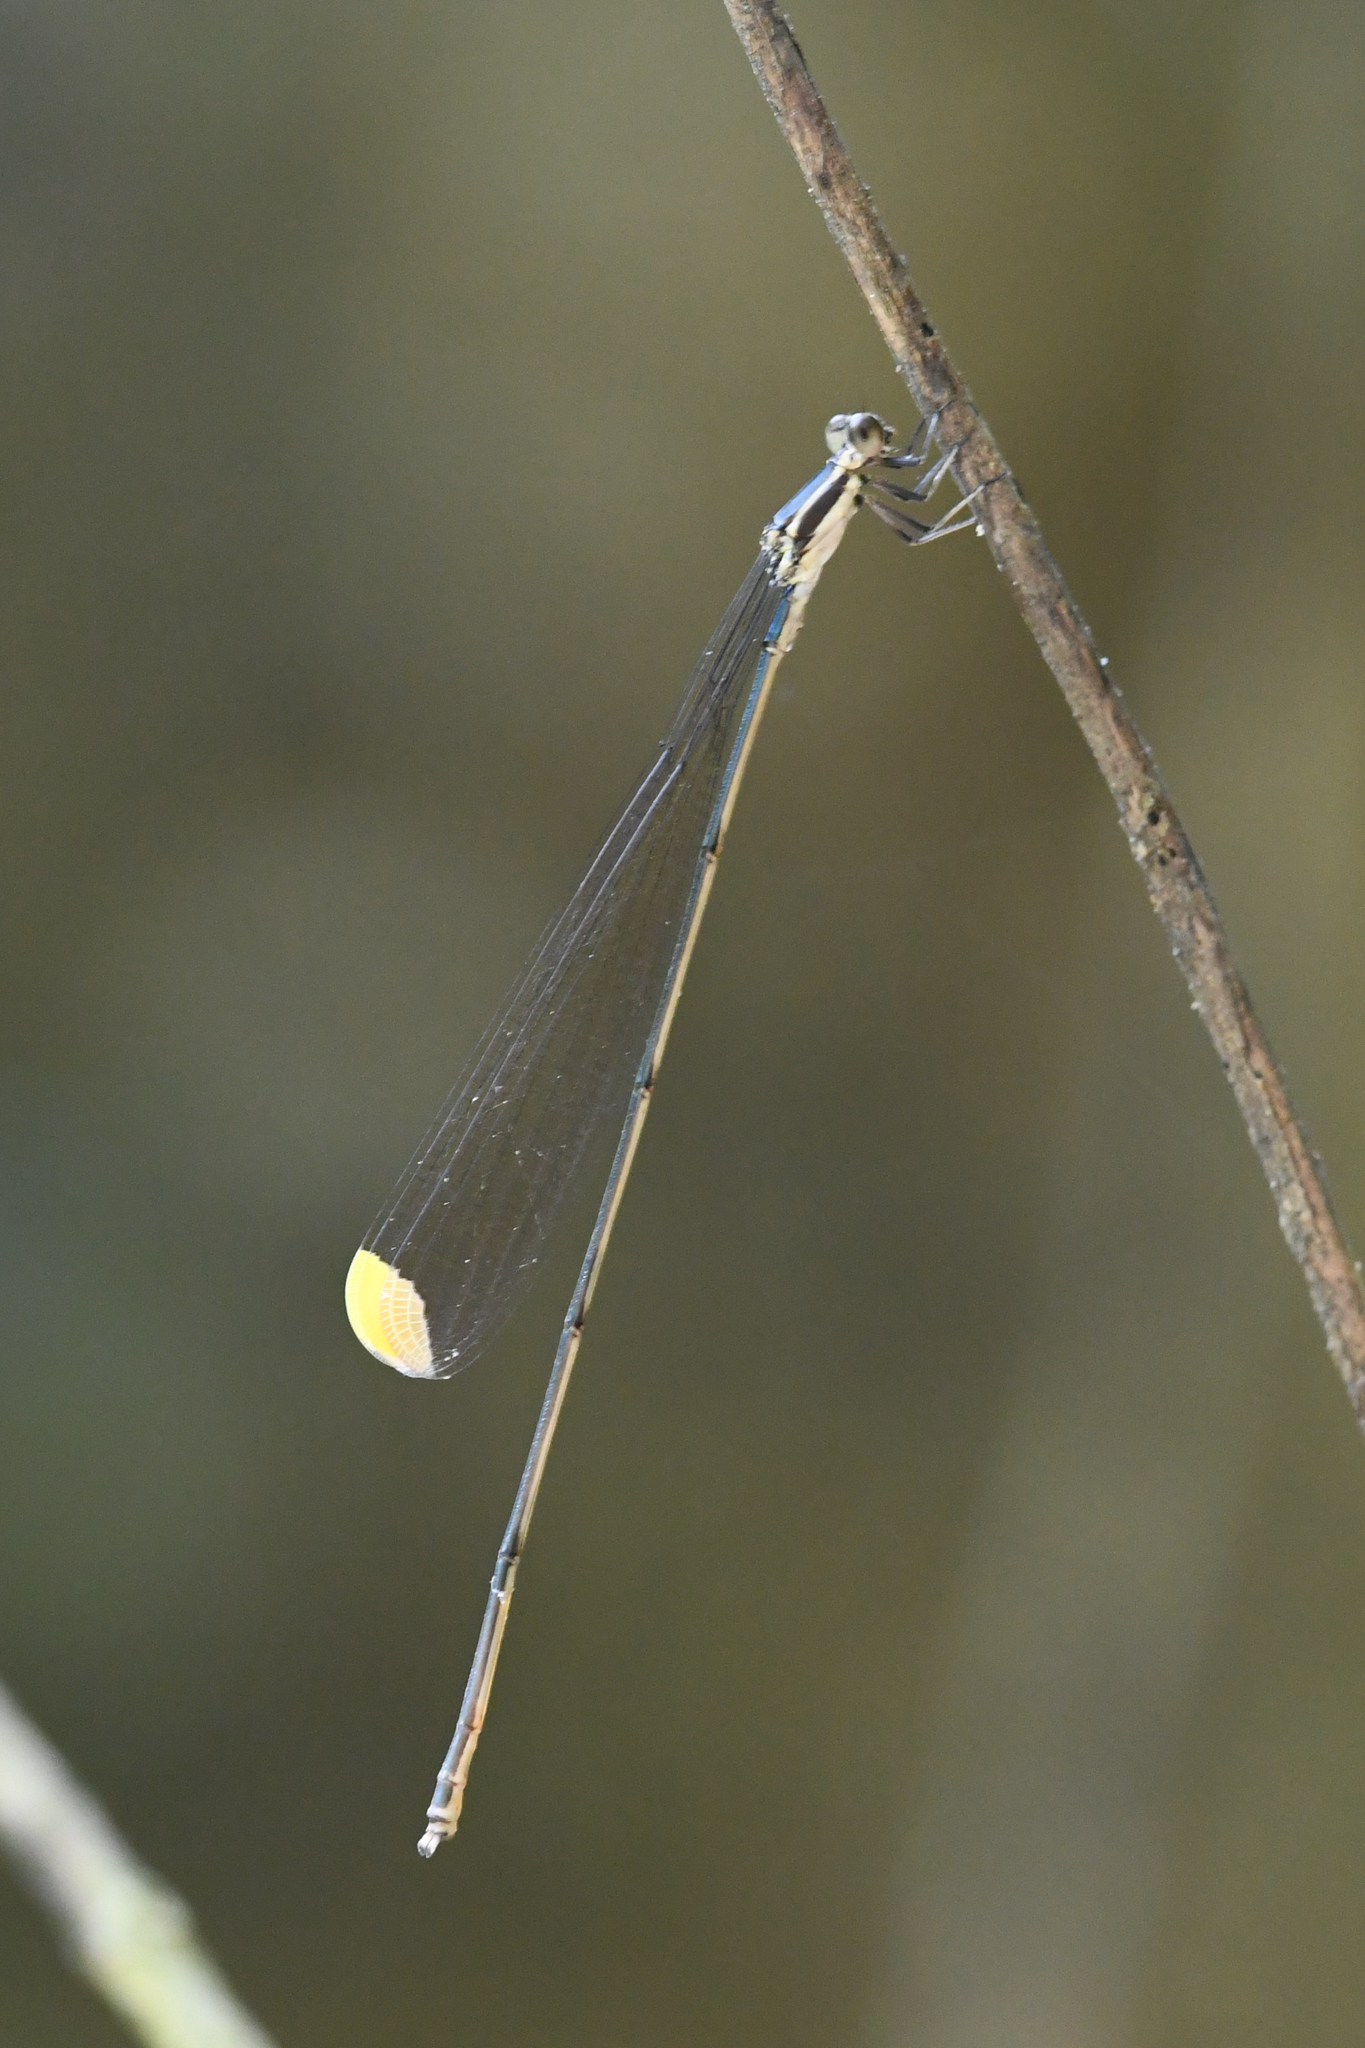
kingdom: Animalia
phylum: Arthropoda
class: Insecta
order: Odonata
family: Coenagrionidae
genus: Mecistogaster
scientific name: Mecistogaster ornata
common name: Ornate helicopter
